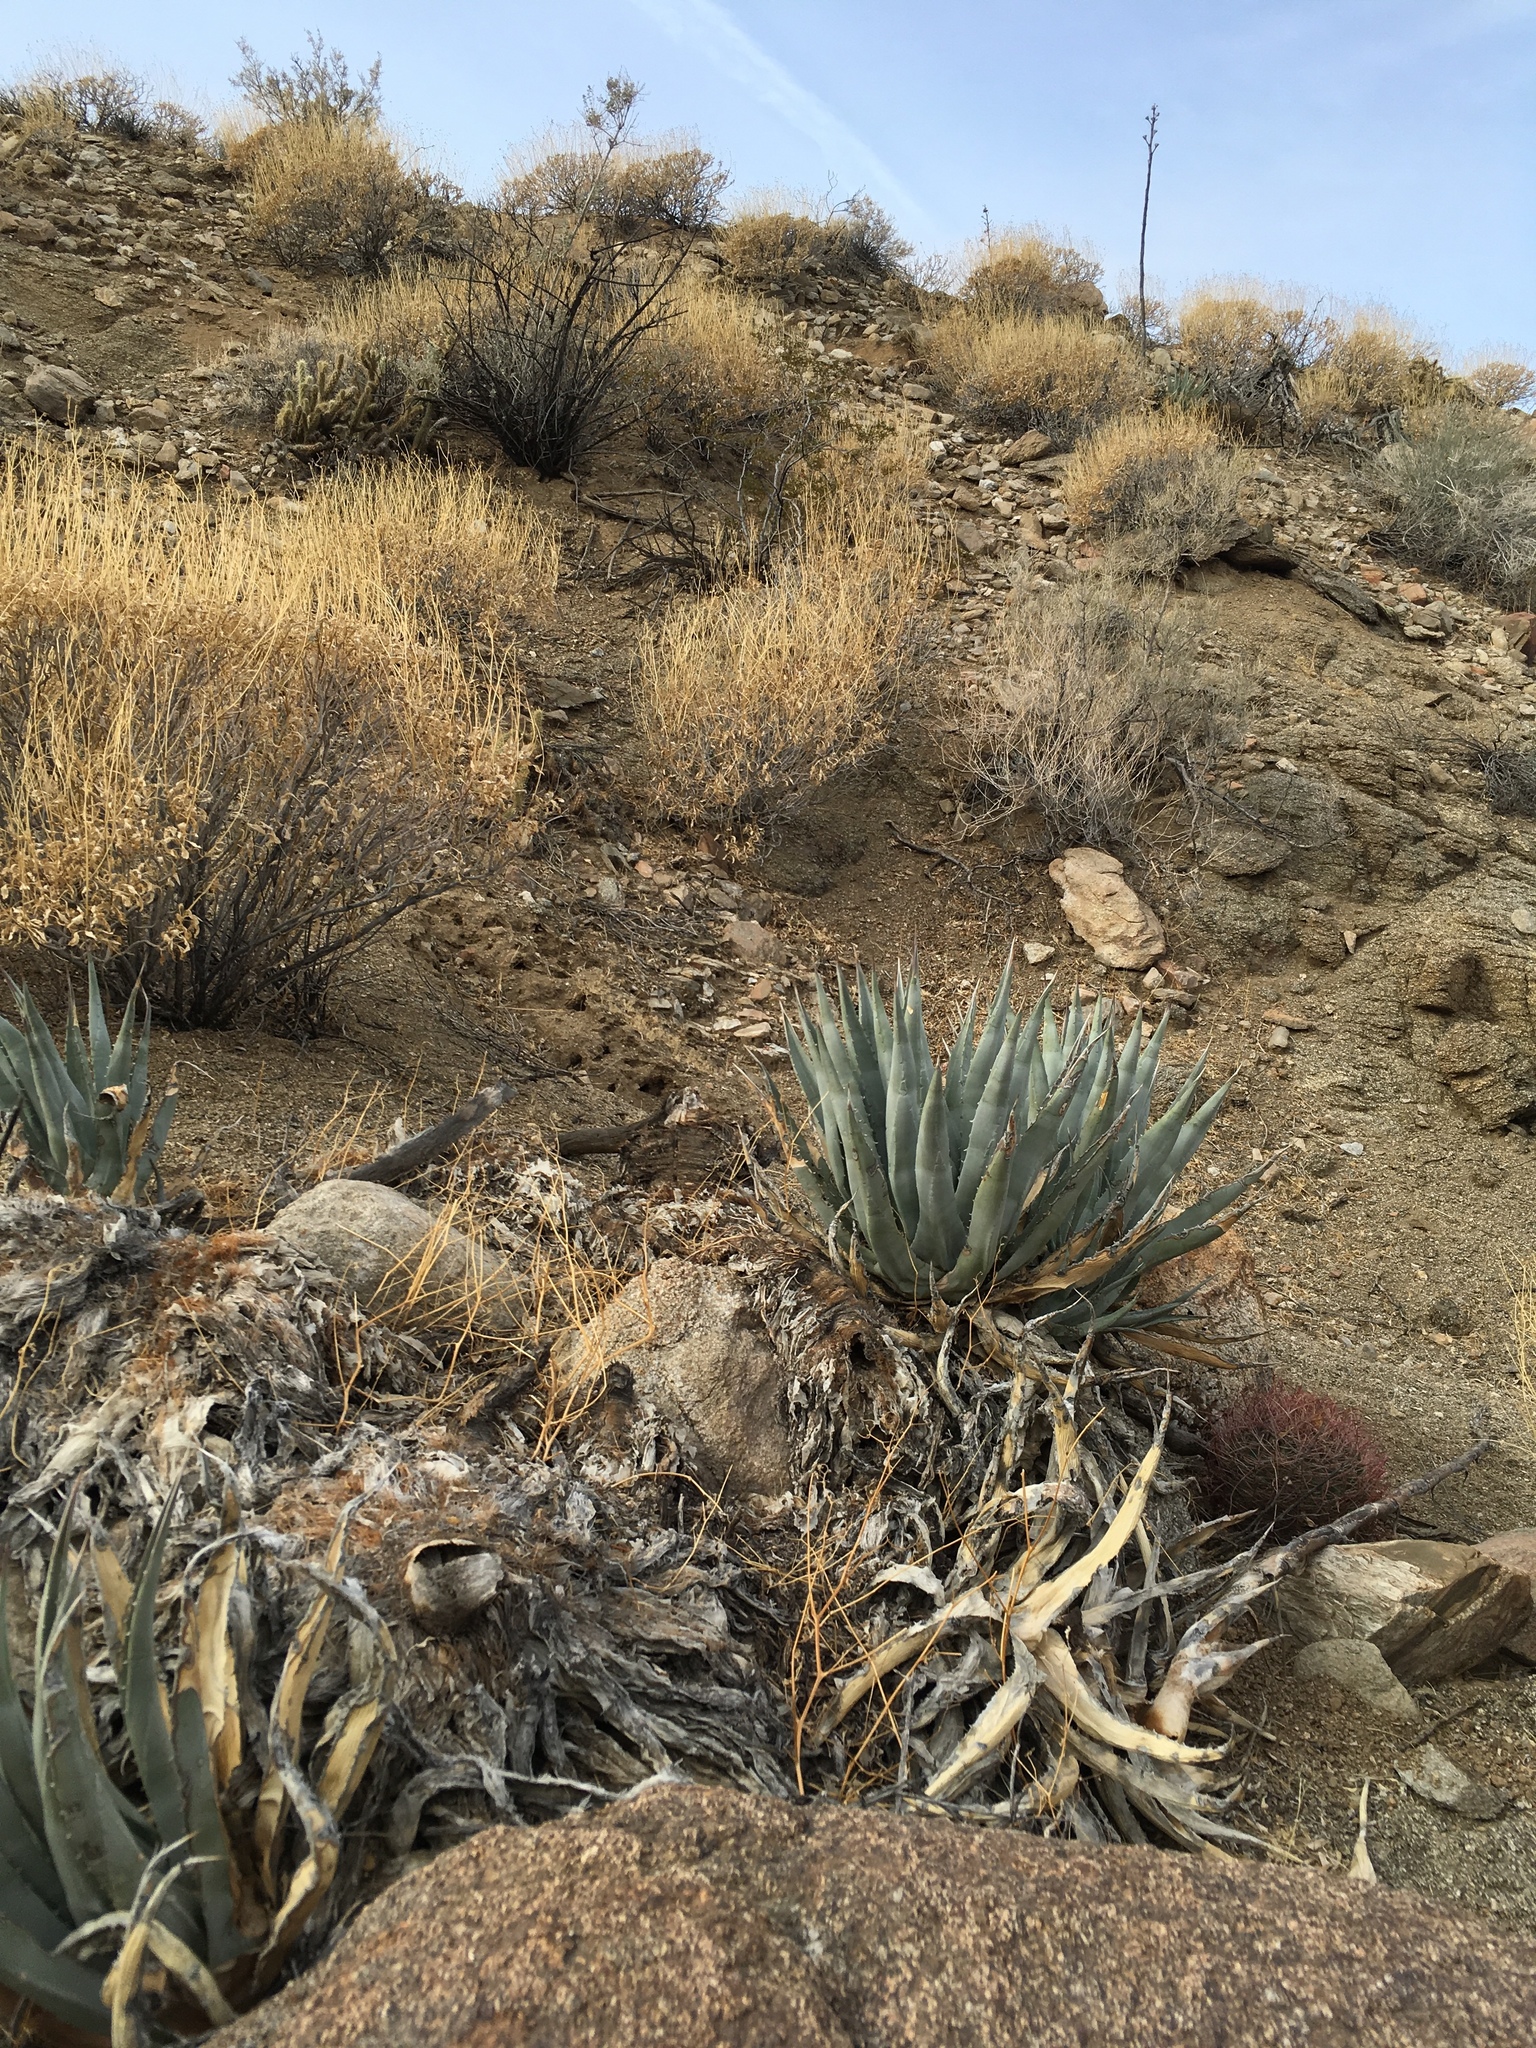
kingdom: Plantae
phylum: Tracheophyta
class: Liliopsida
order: Asparagales
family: Asparagaceae
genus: Agave
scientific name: Agave deserti
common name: Desert agave
